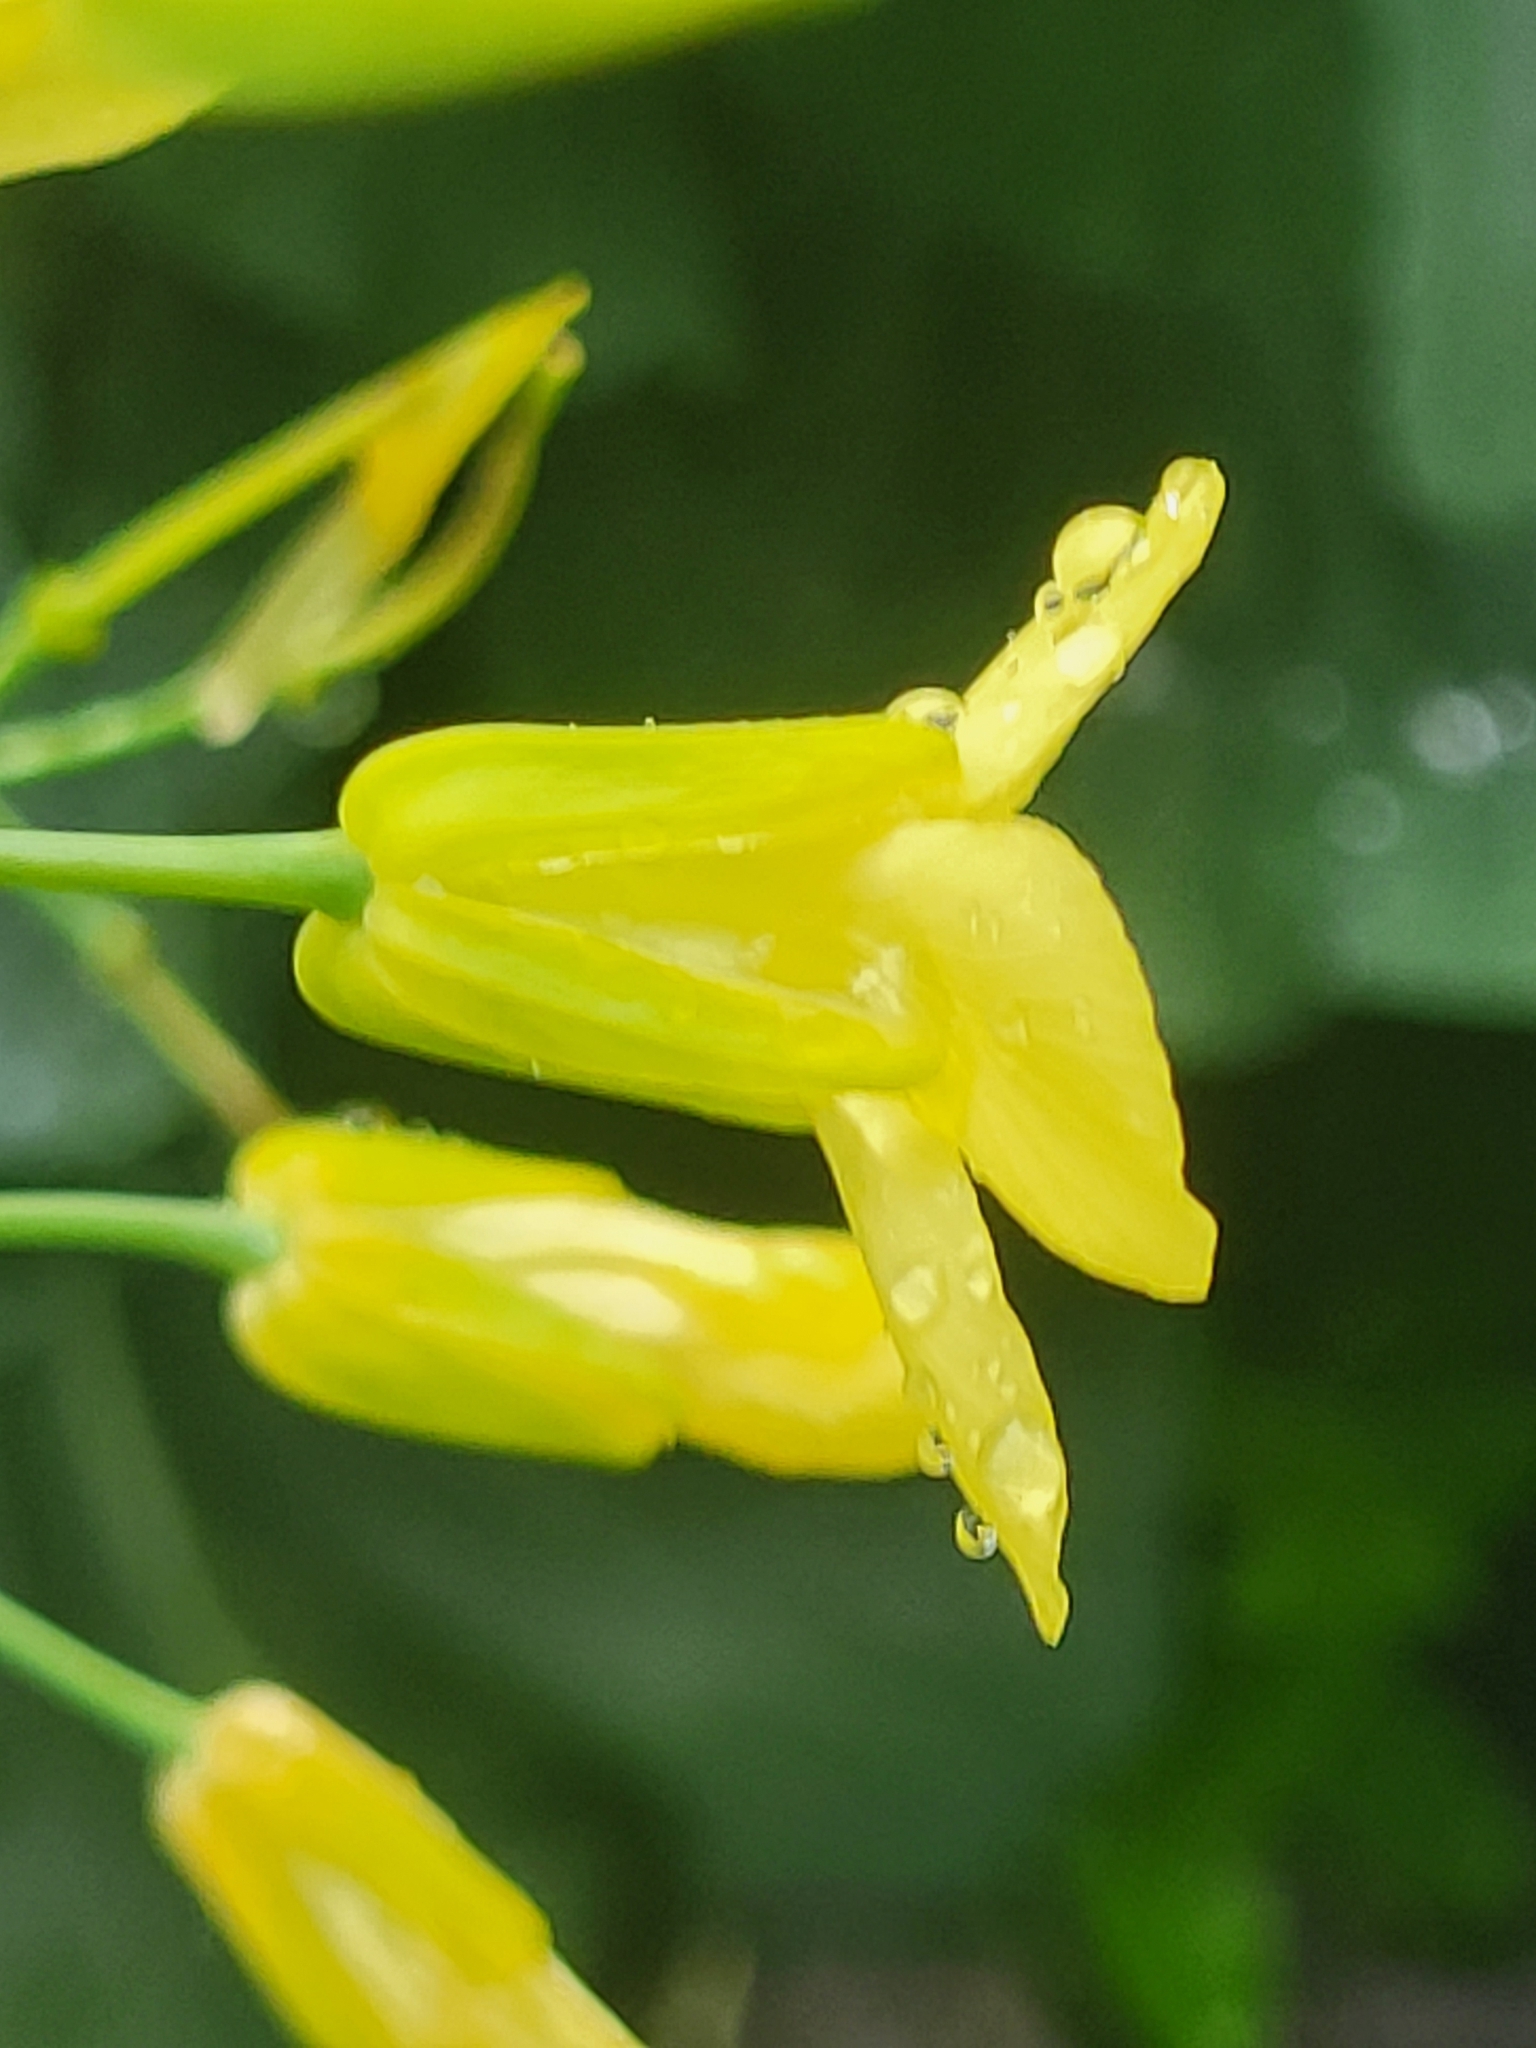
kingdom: Plantae
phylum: Tracheophyta
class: Magnoliopsida
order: Brassicales
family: Brassicaceae
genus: Brassica
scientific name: Brassica oleracea
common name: Cabbage
